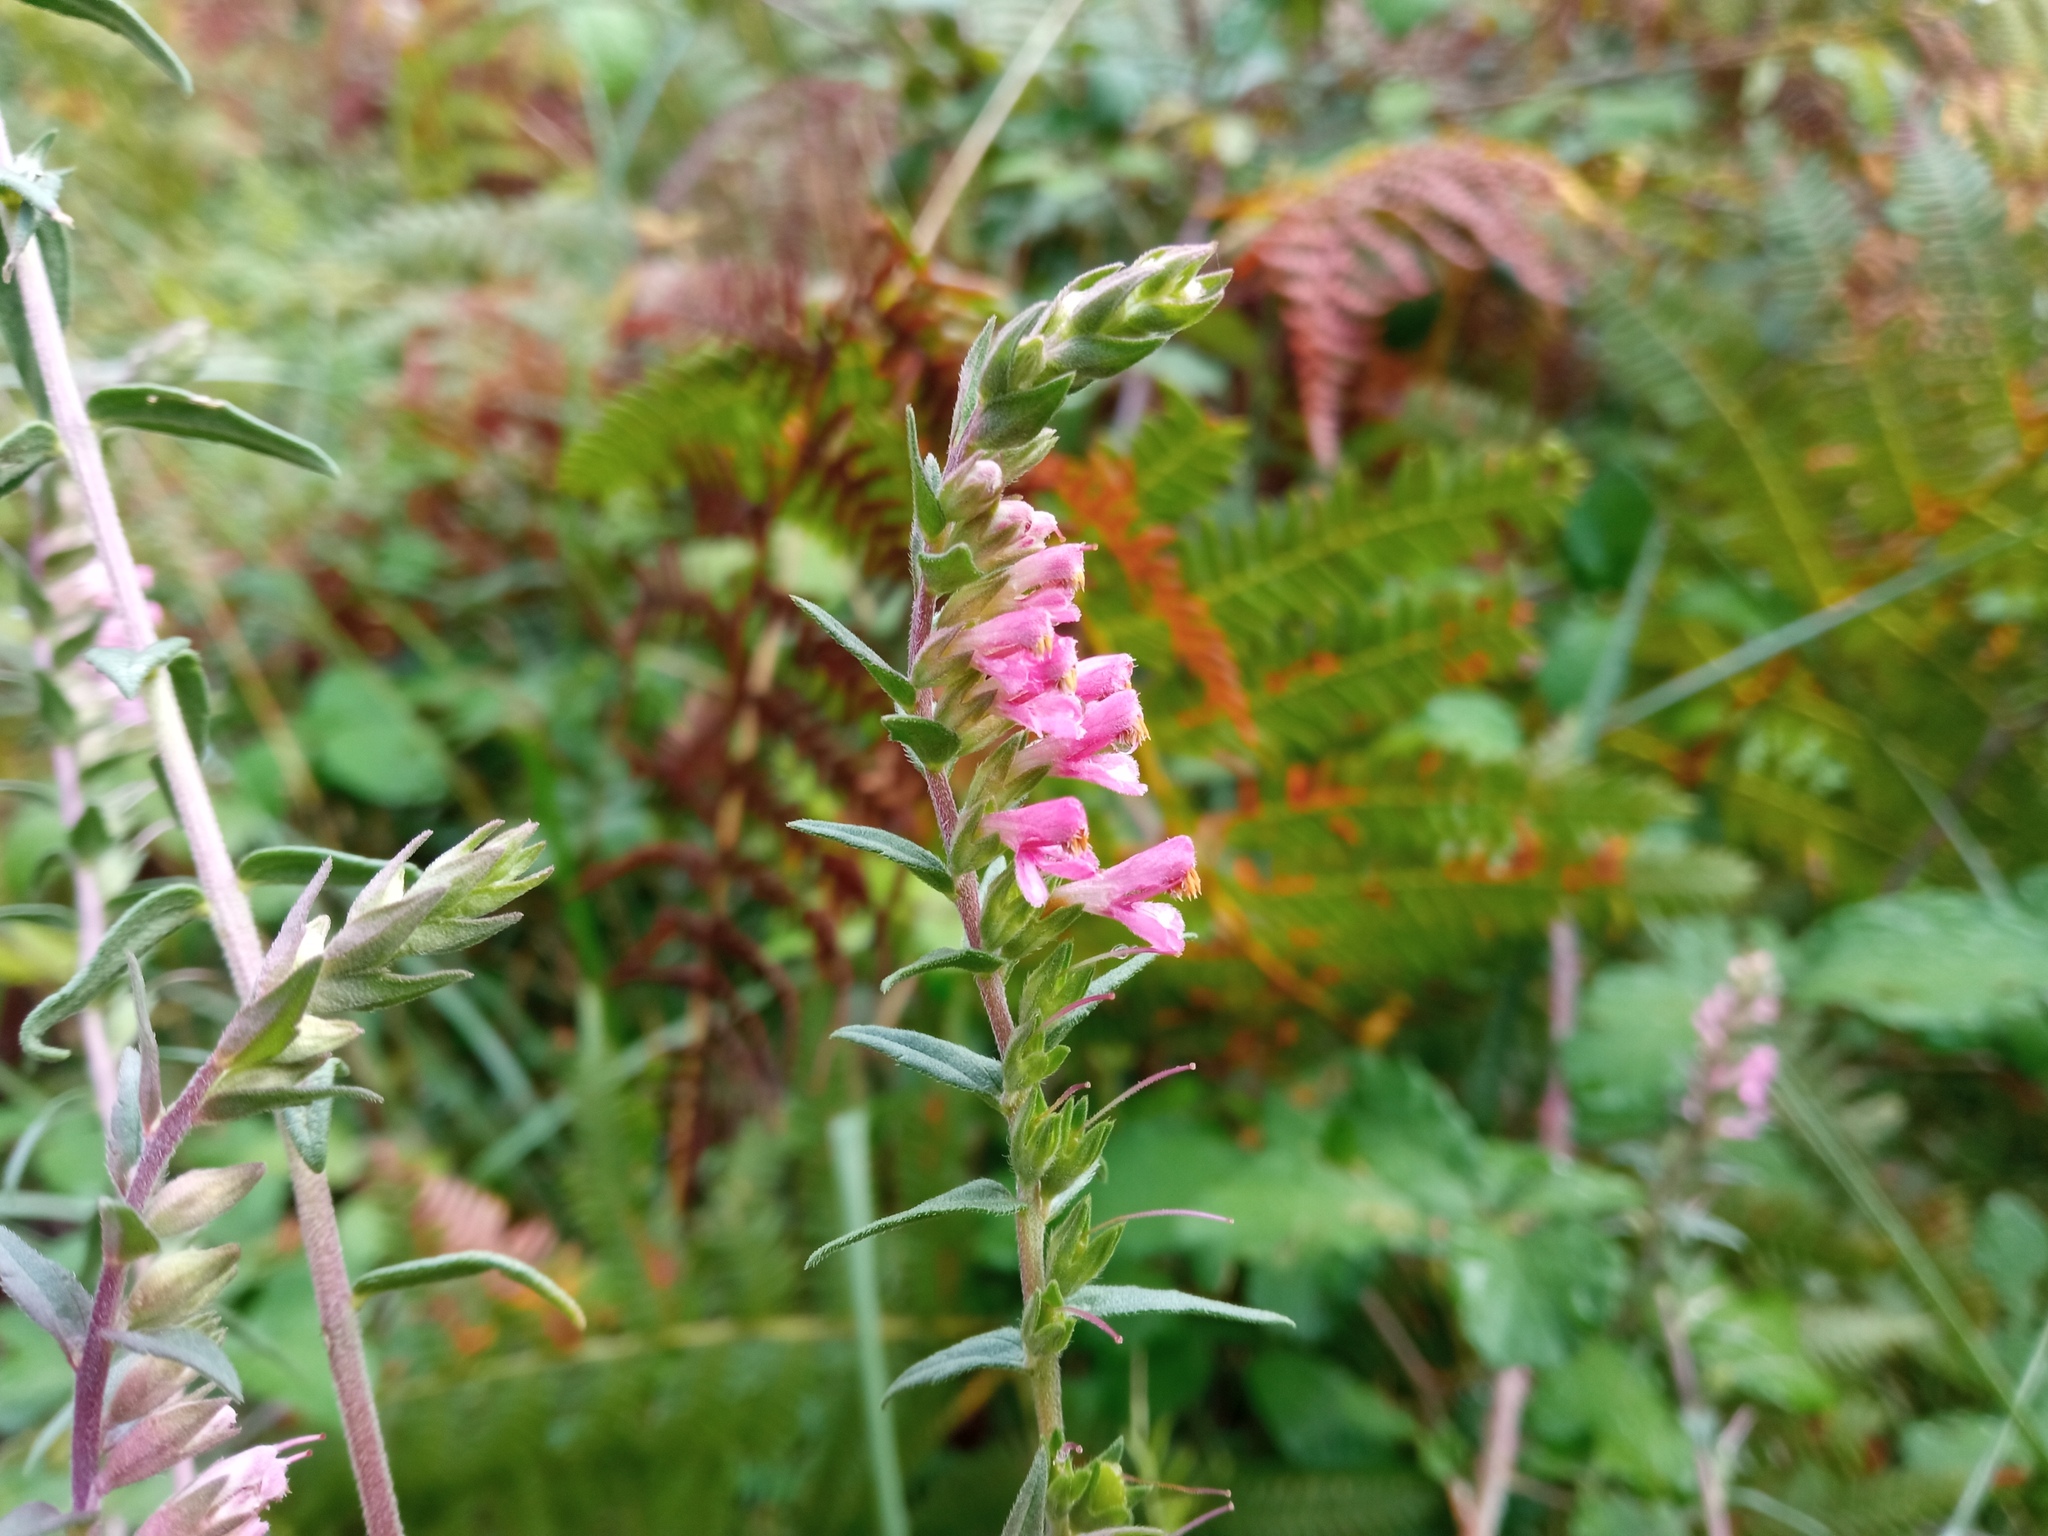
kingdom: Plantae
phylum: Tracheophyta
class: Magnoliopsida
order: Lamiales
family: Orobanchaceae
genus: Odontites
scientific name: Odontites vernus
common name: Red bartsia
